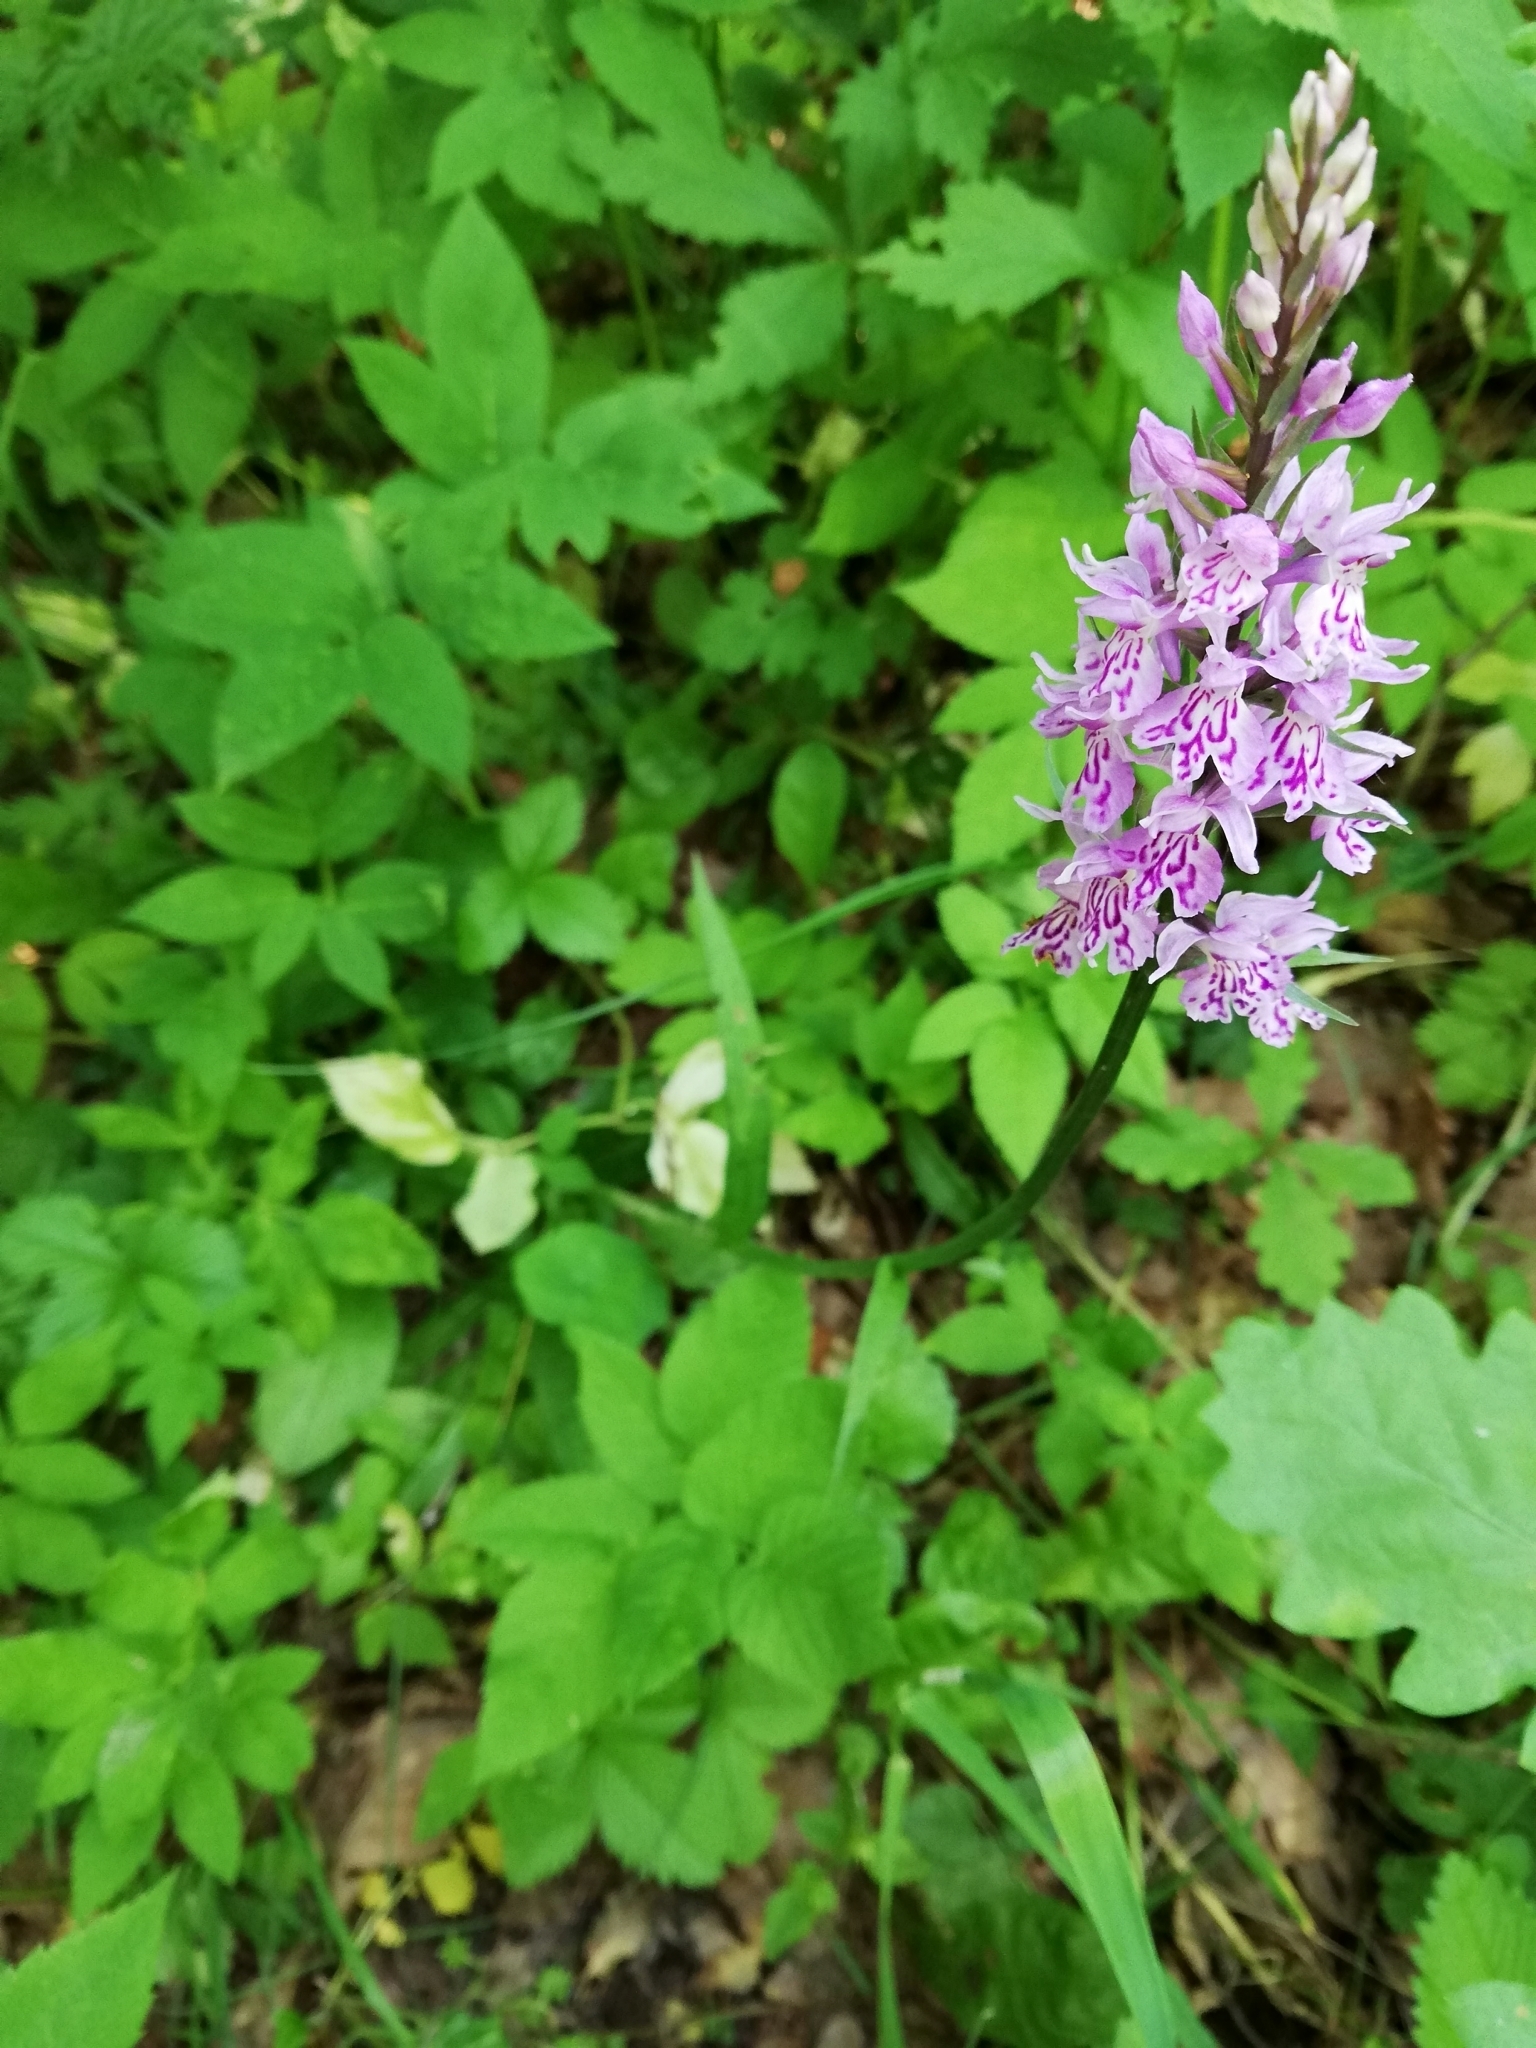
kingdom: Plantae
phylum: Tracheophyta
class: Liliopsida
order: Asparagales
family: Orchidaceae
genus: Dactylorhiza
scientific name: Dactylorhiza maculata
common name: Heath spotted-orchid
